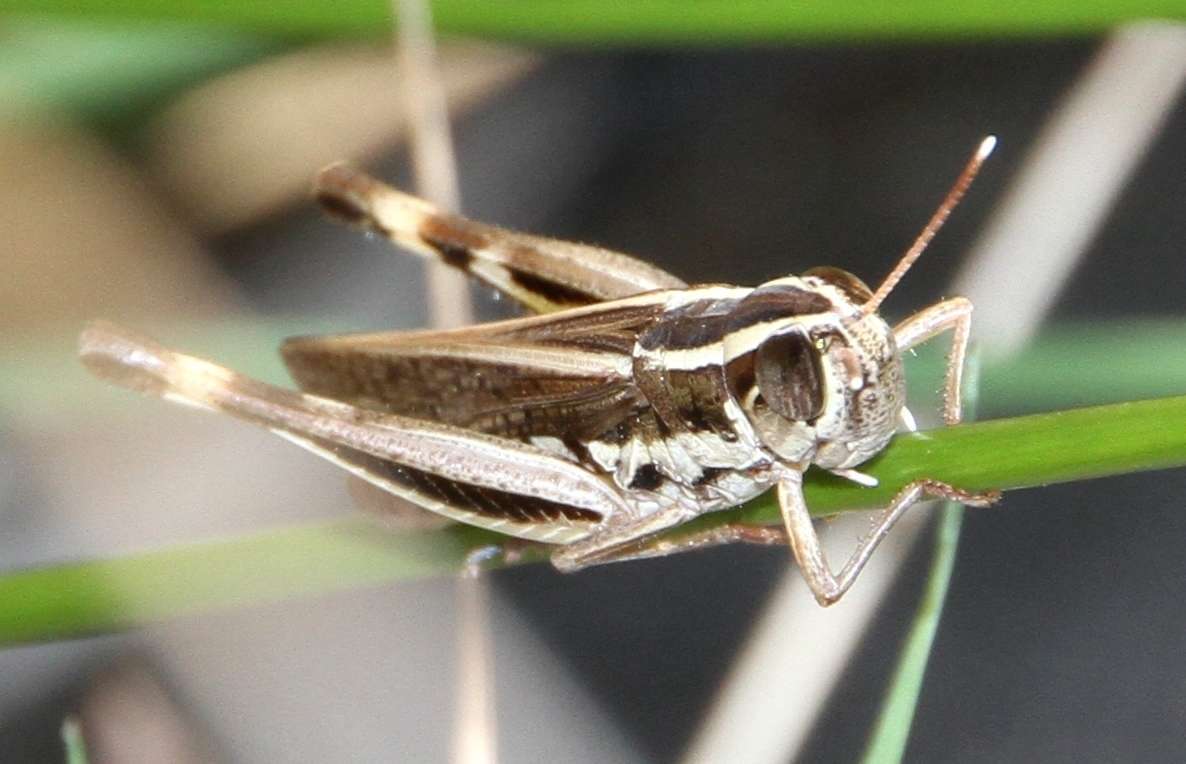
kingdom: Animalia
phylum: Arthropoda
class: Insecta
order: Orthoptera
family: Acrididae
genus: Macrotona
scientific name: Macrotona securiformis
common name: Inland macrotona
